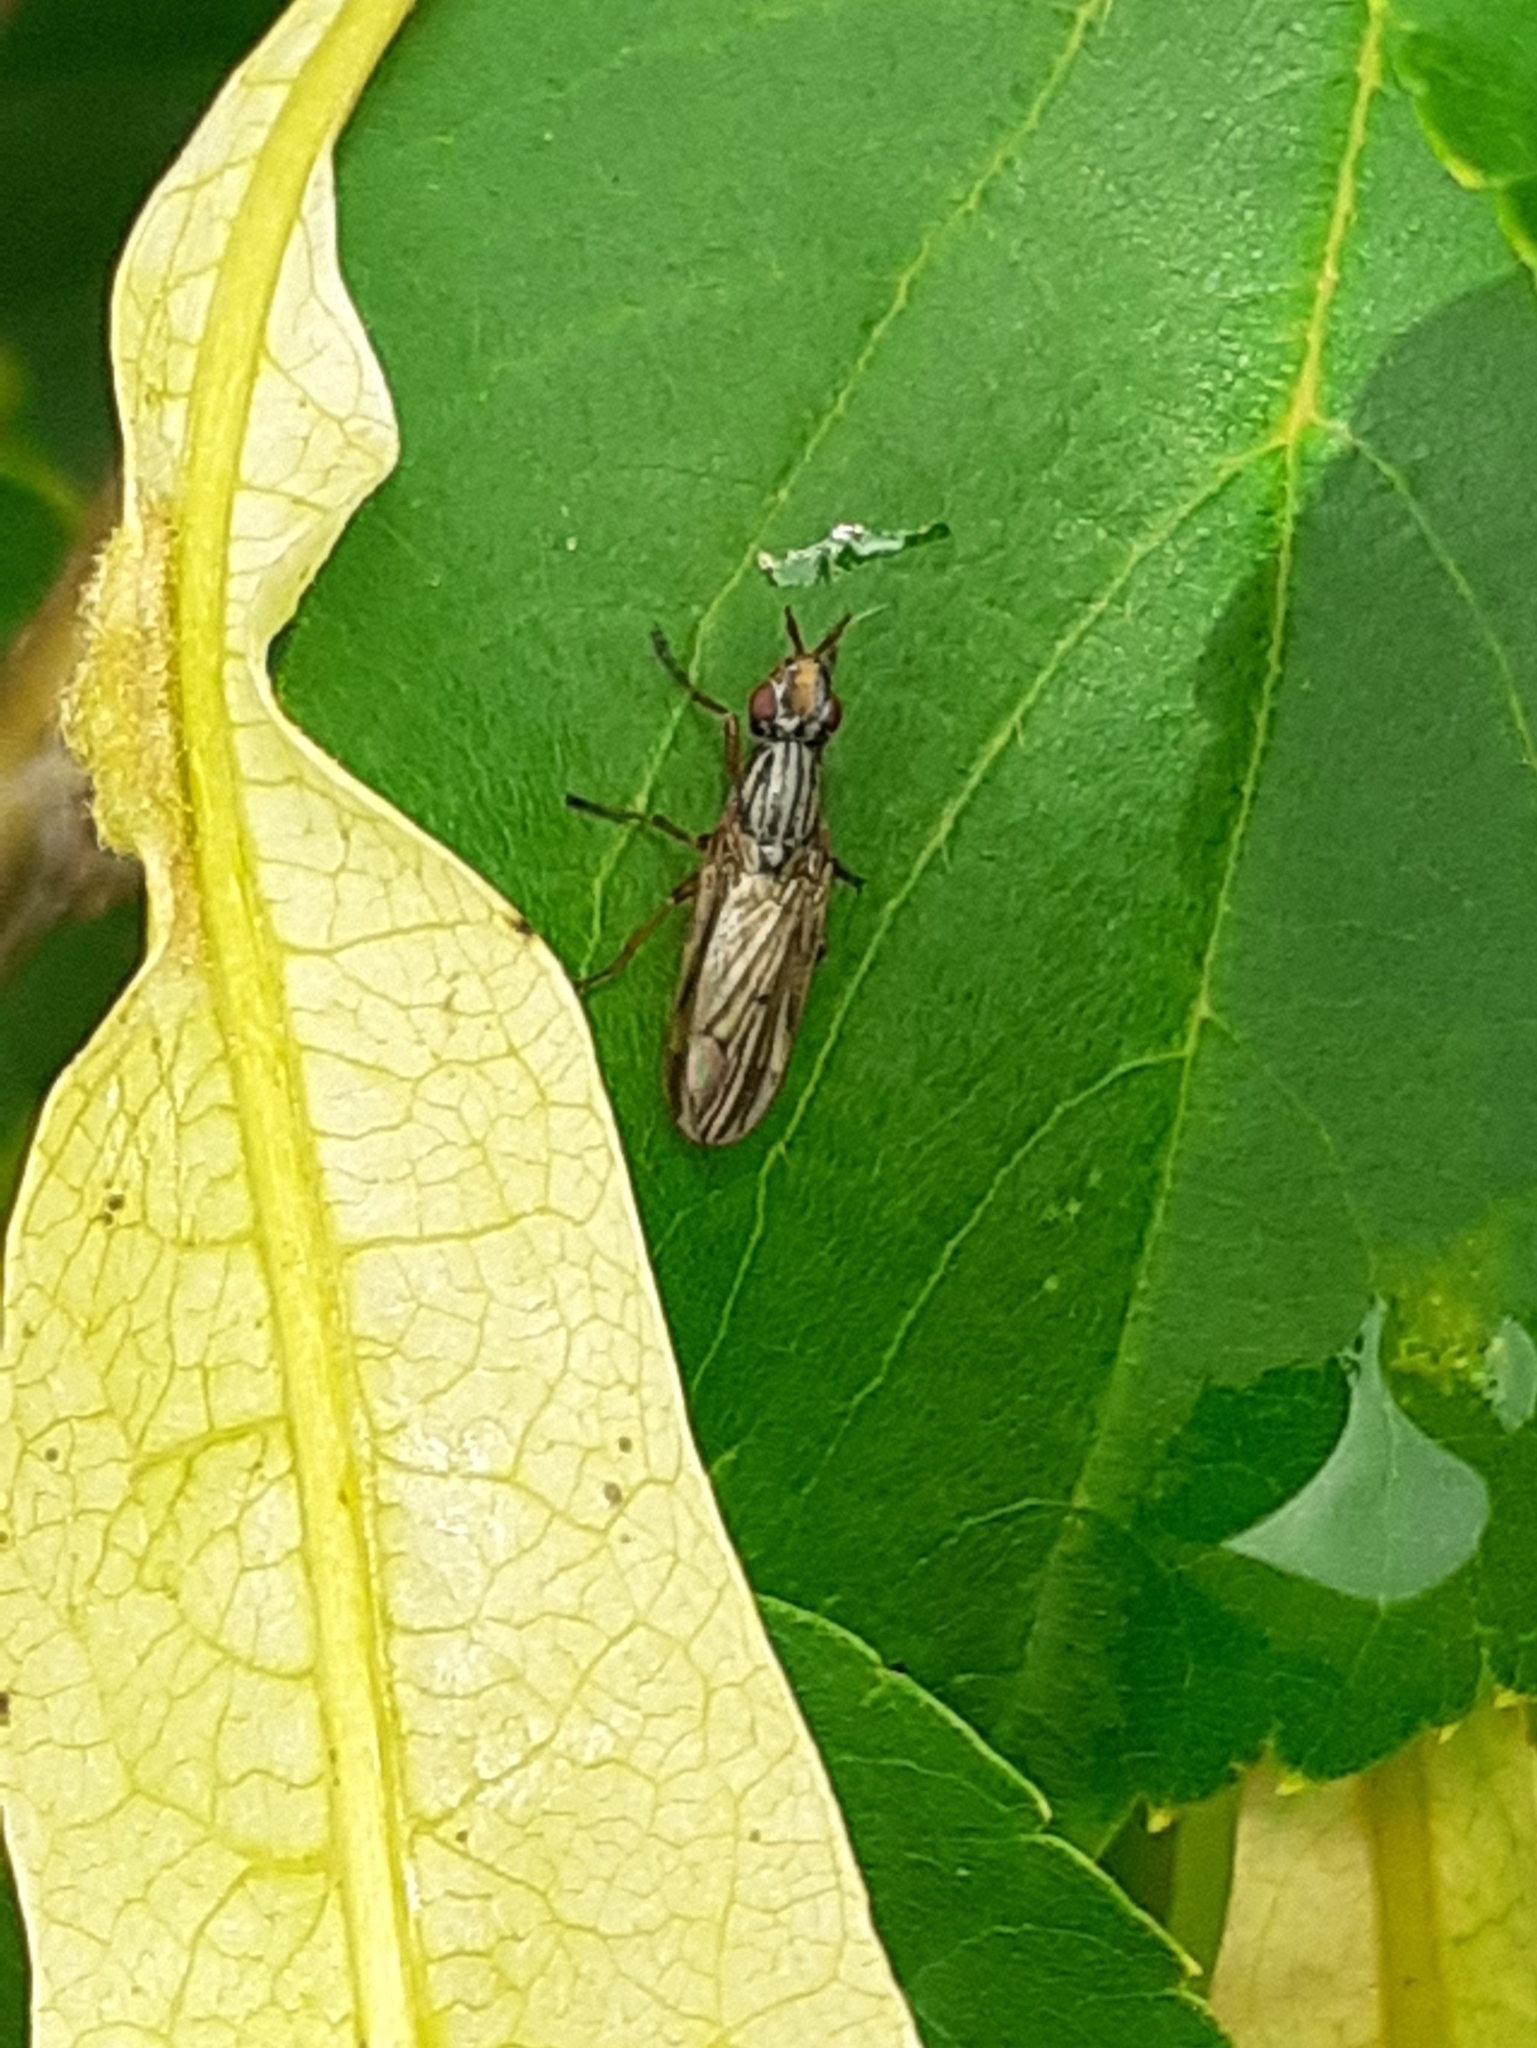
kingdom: Animalia
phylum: Arthropoda
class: Insecta
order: Diptera
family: Ulidiidae
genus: Dorycera
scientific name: Dorycera aquatica
